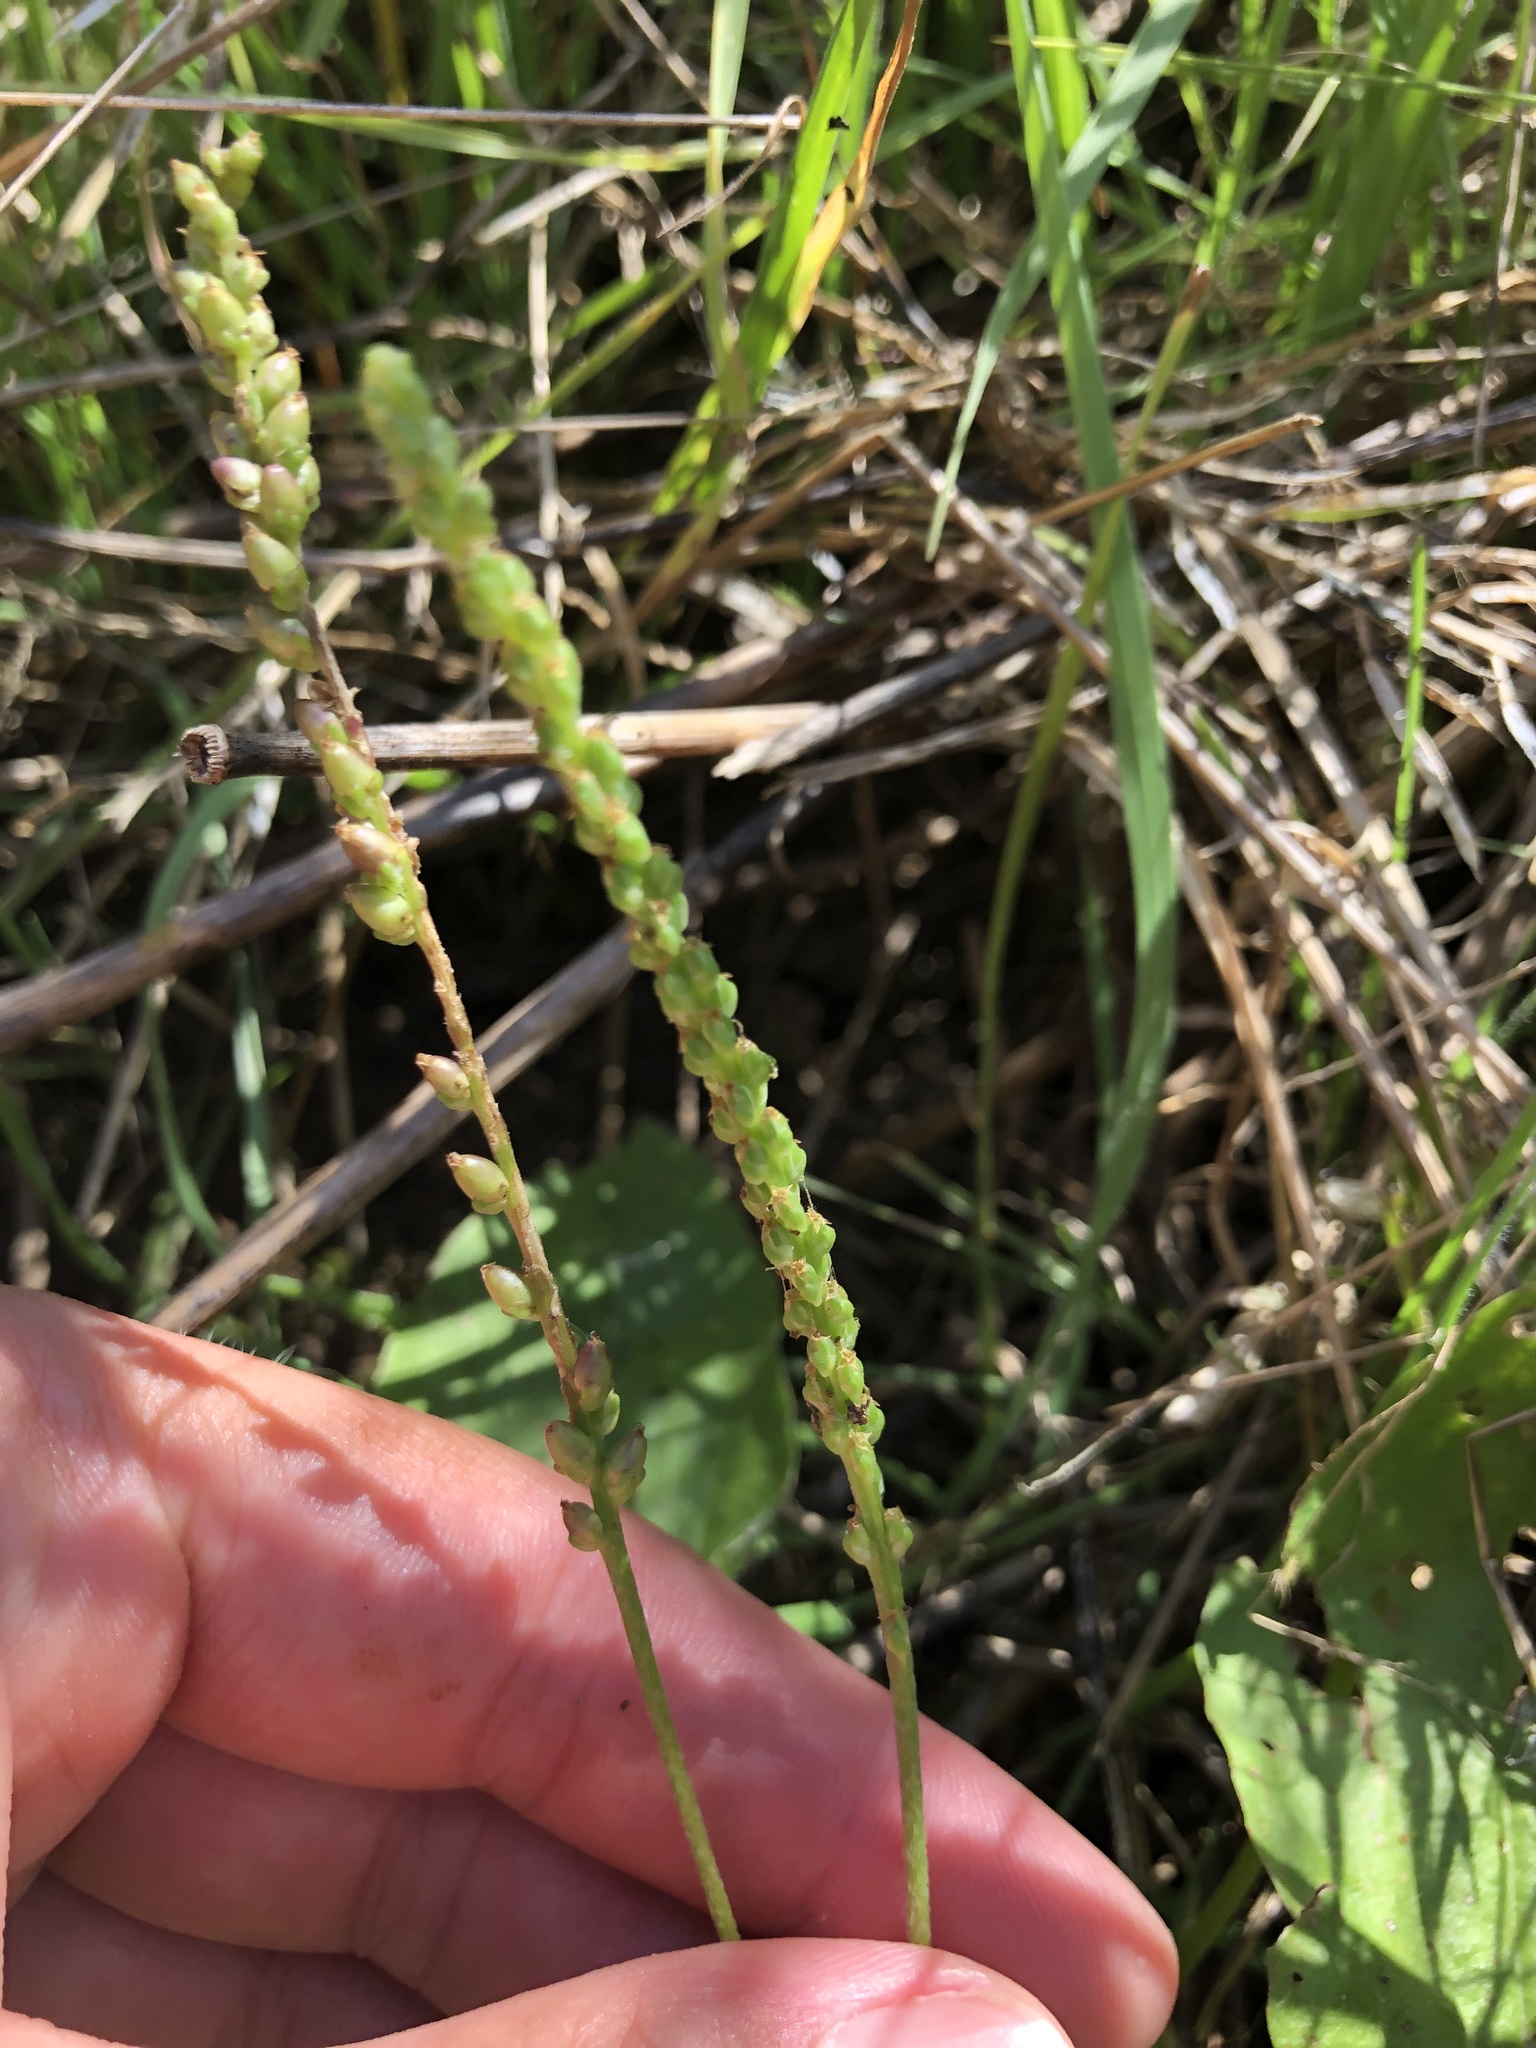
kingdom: Plantae
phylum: Tracheophyta
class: Magnoliopsida
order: Lamiales
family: Plantaginaceae
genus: Plantago
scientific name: Plantago major
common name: Common plantain
